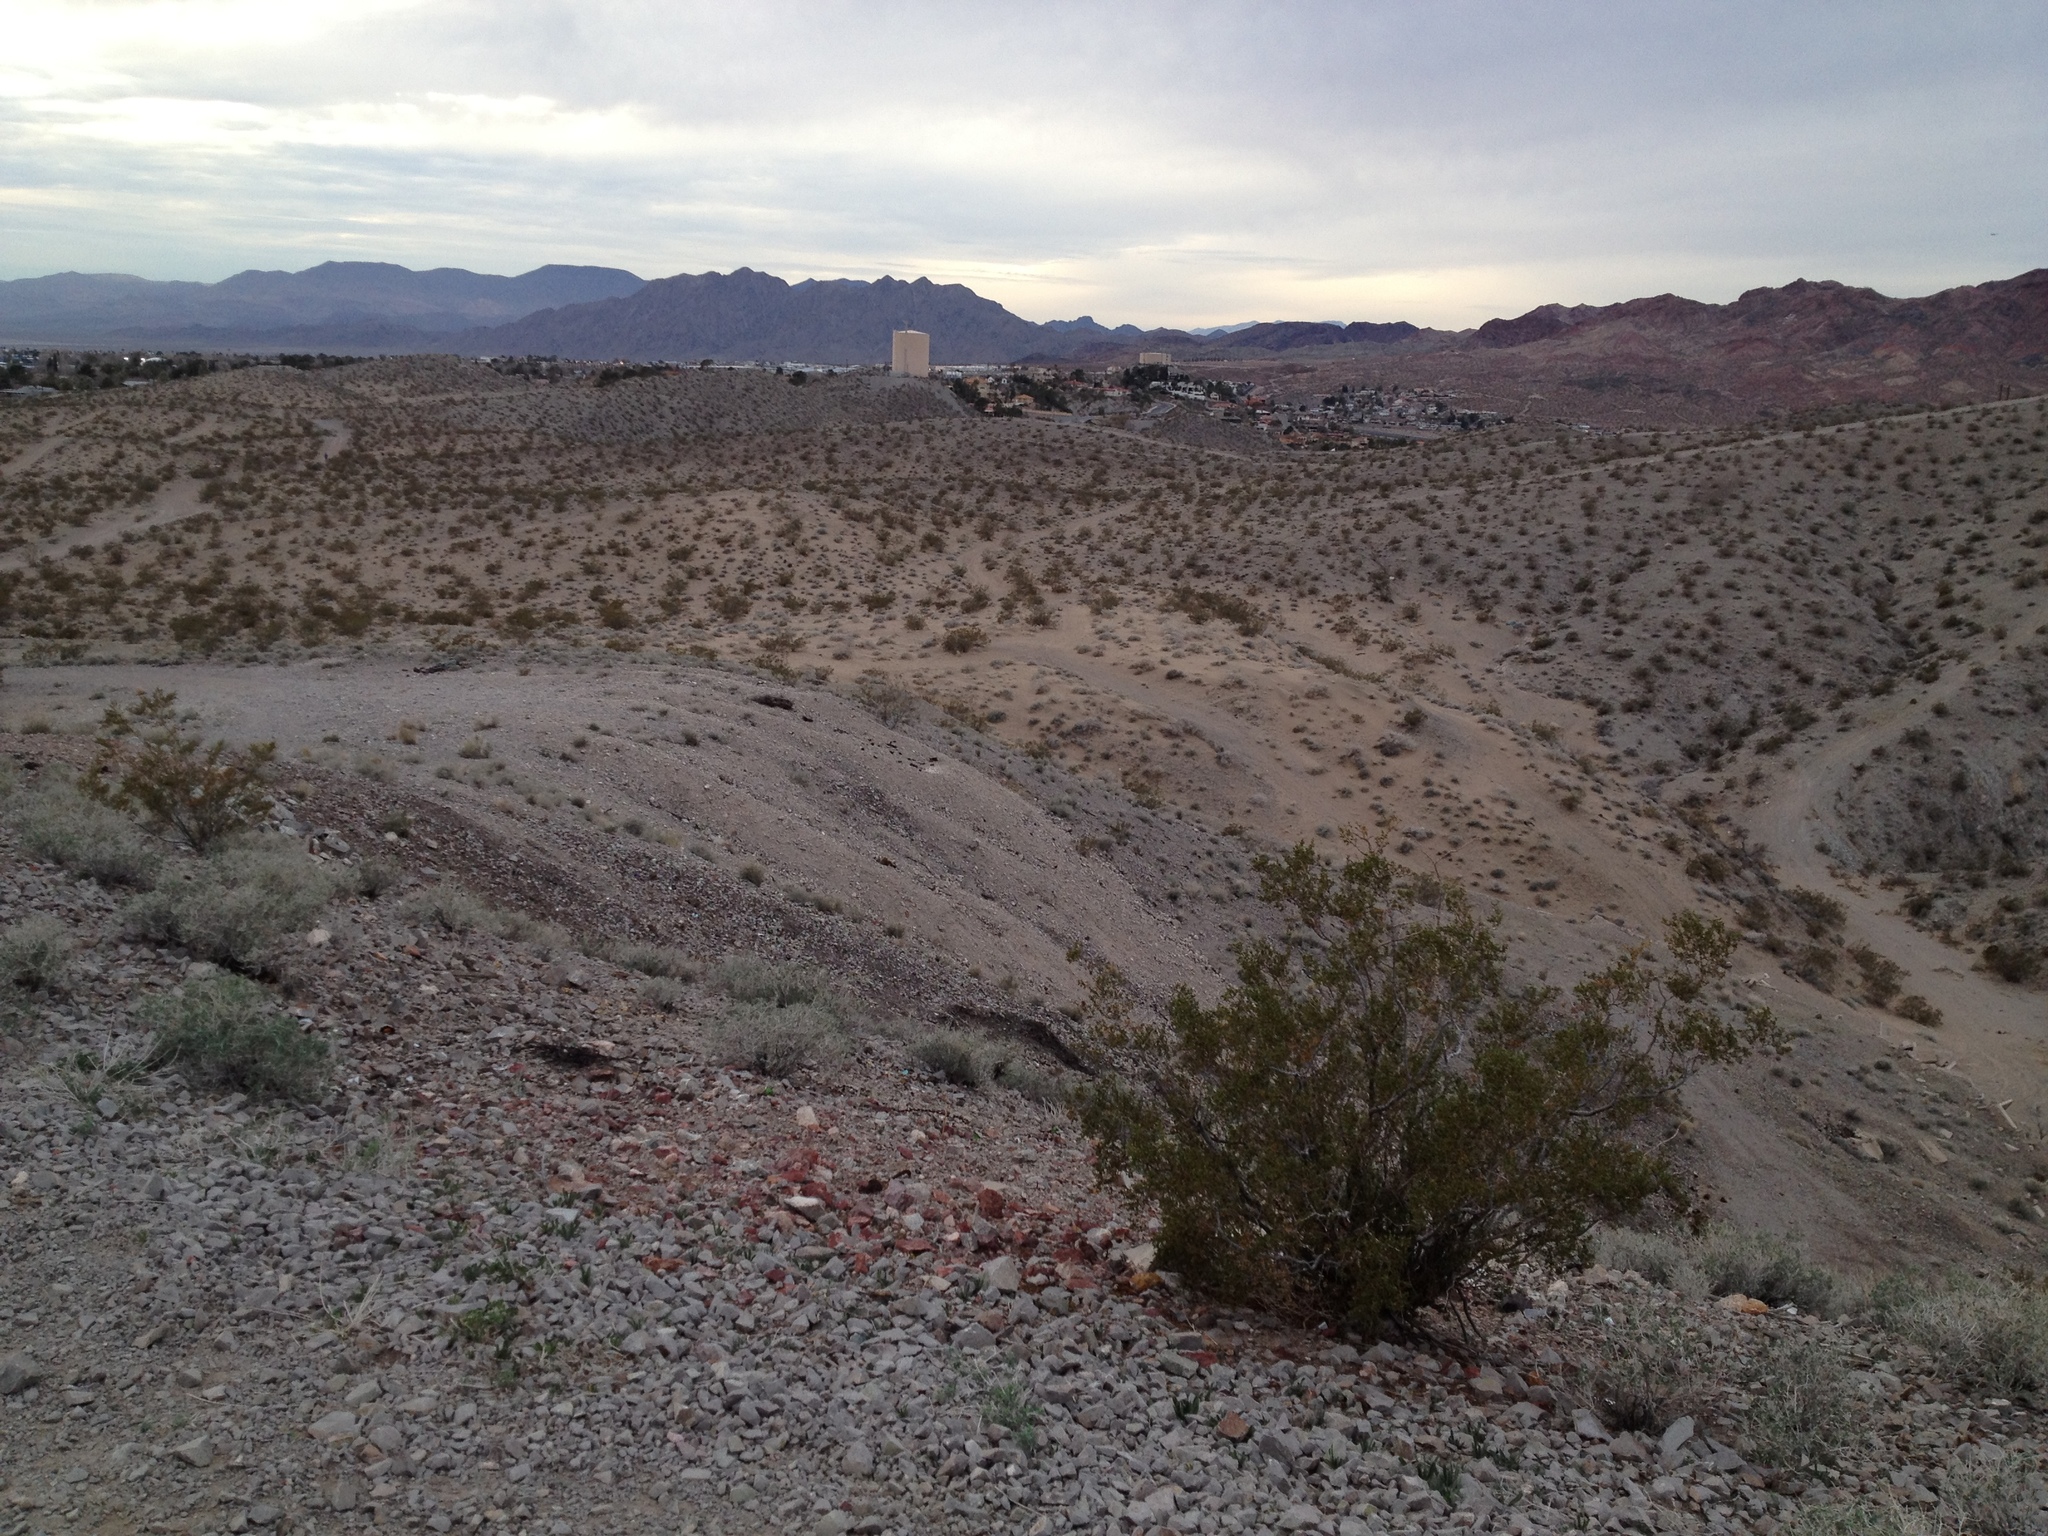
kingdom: Plantae
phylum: Tracheophyta
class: Magnoliopsida
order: Zygophyllales
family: Zygophyllaceae
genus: Larrea
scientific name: Larrea tridentata
